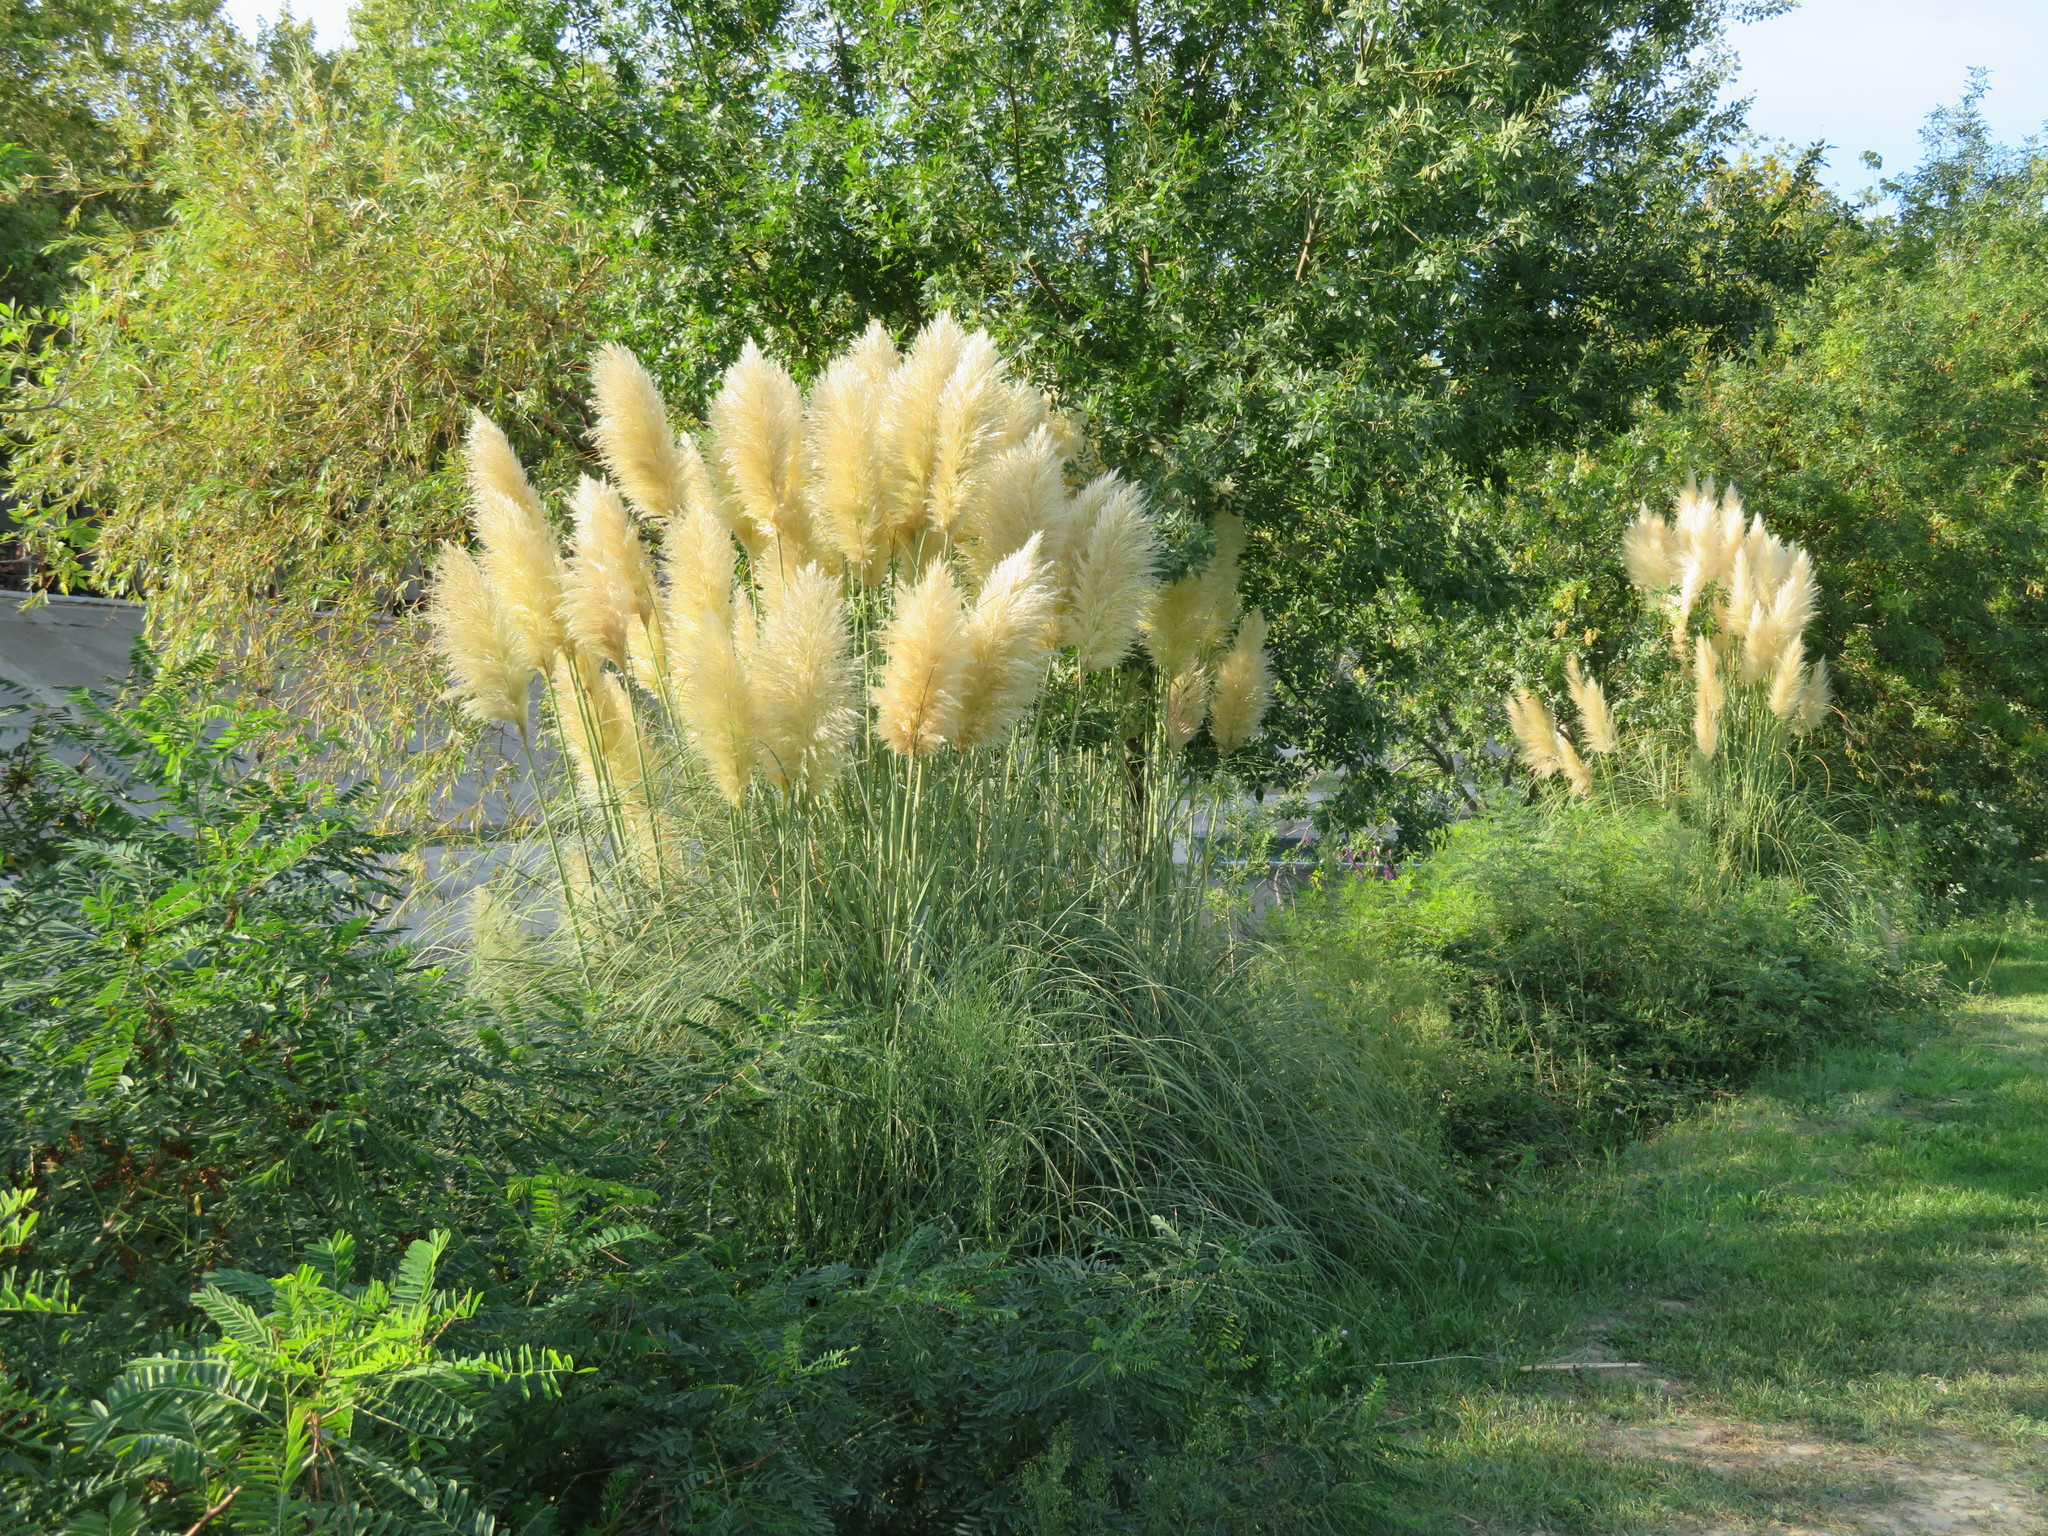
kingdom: Plantae
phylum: Tracheophyta
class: Liliopsida
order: Poales
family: Poaceae
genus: Cortaderia
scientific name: Cortaderia selloana
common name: Uruguayan pampas grass
